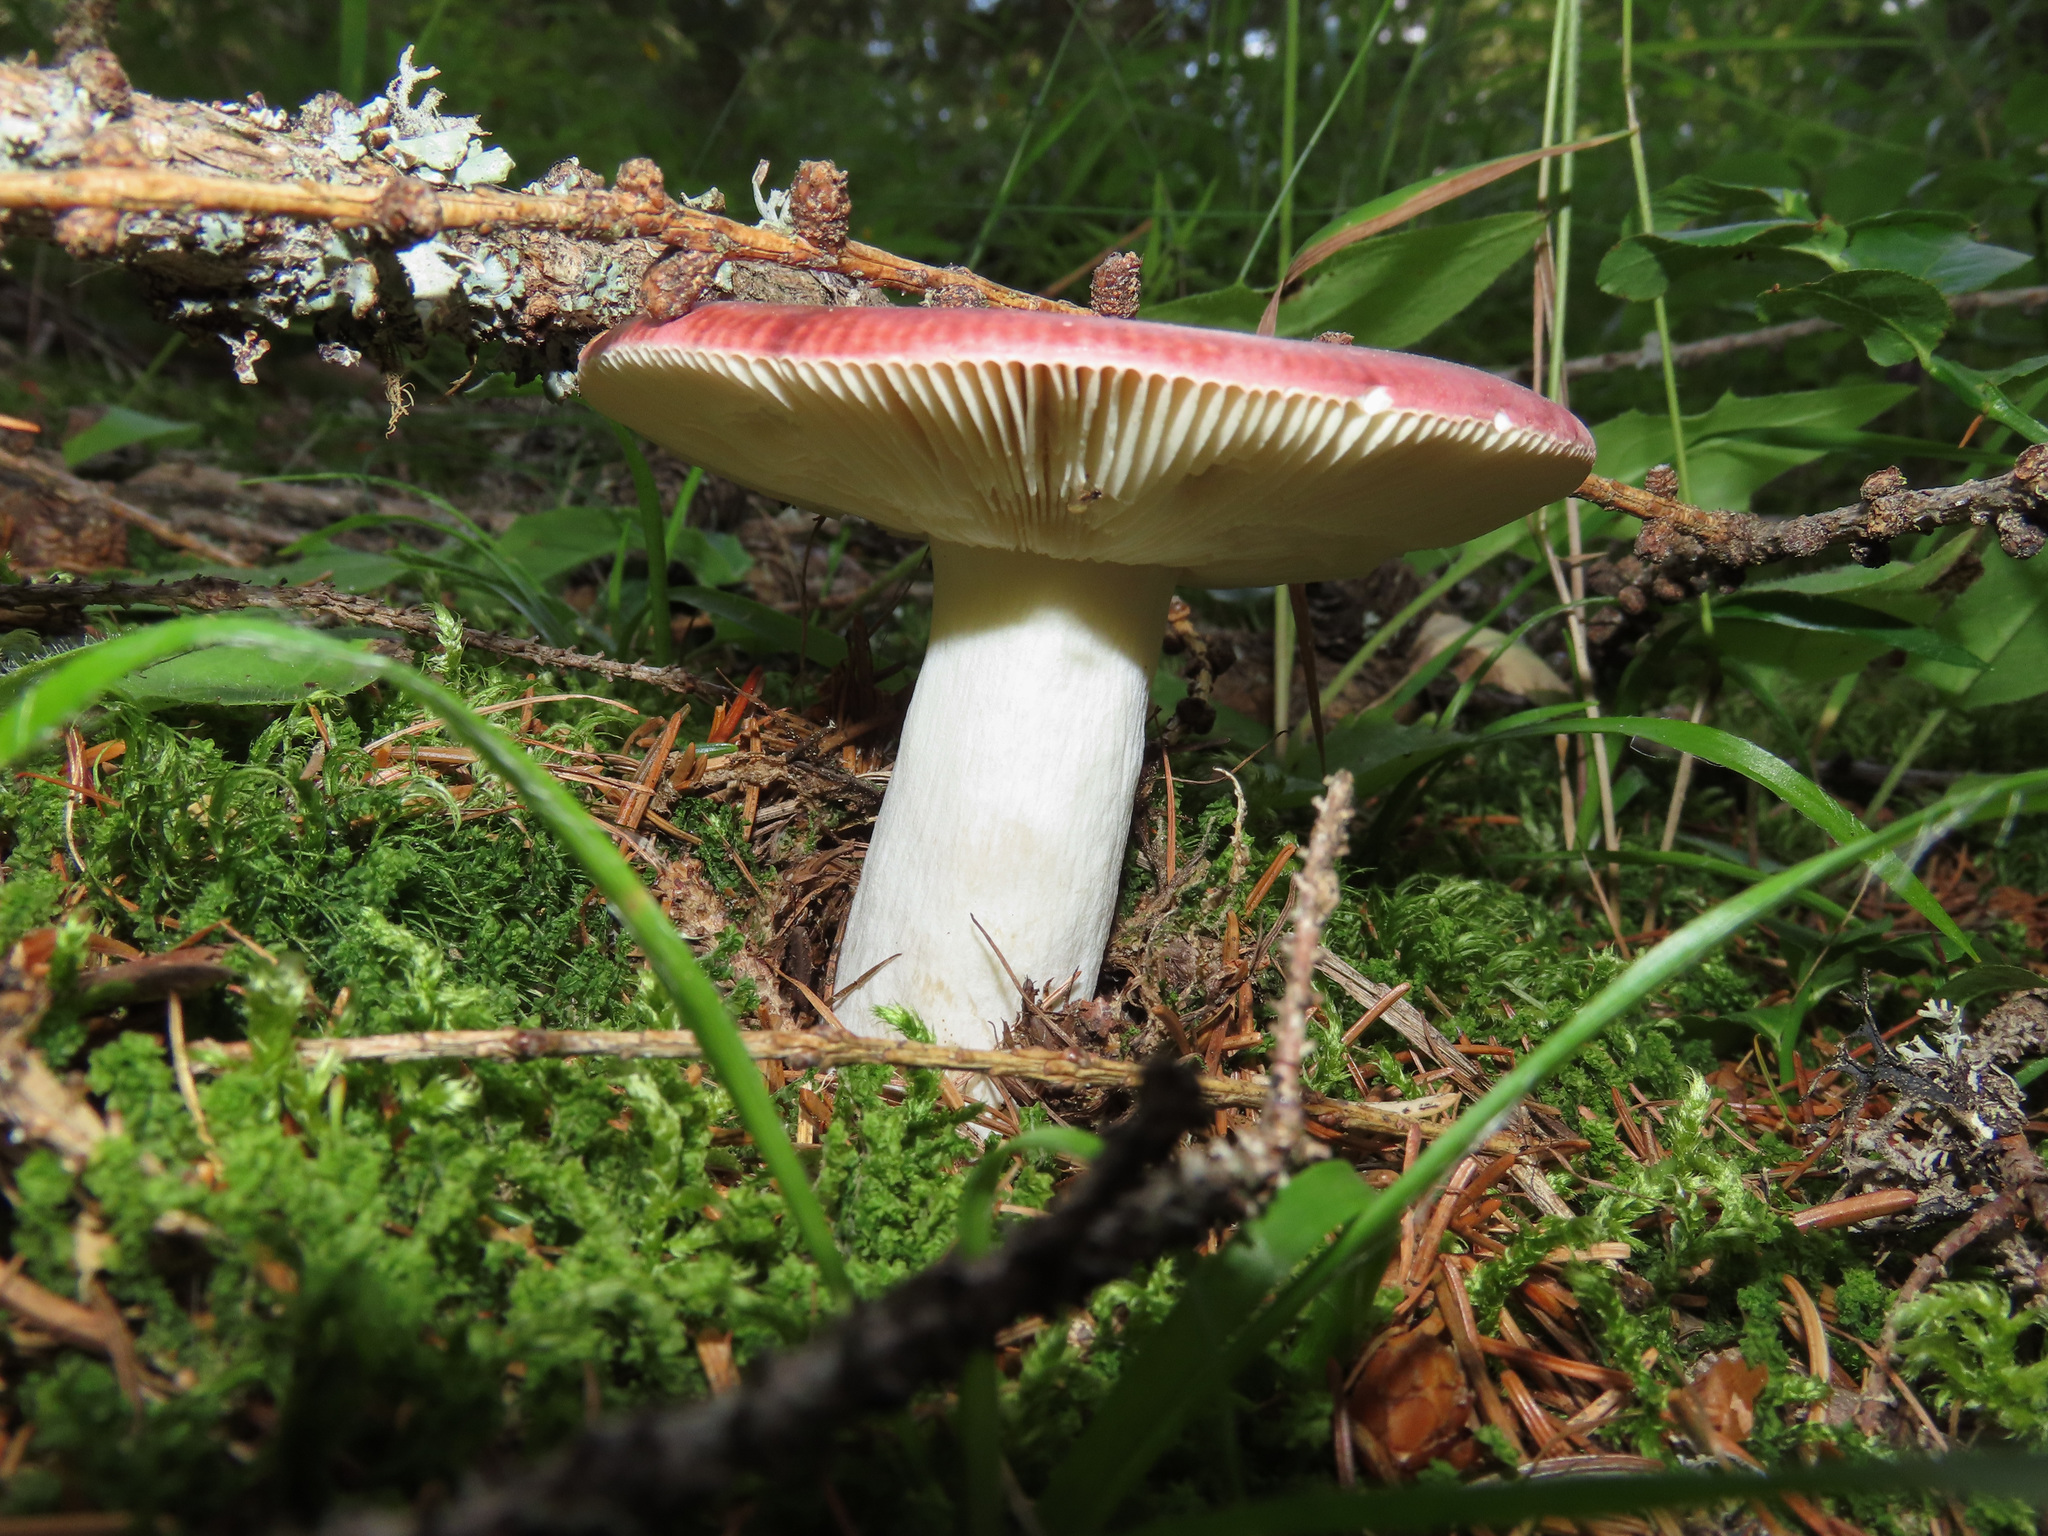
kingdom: Fungi
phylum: Basidiomycota
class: Agaricomycetes
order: Russulales
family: Russulaceae
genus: Russula
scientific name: Russula vinosa
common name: Darkening brittlegill
